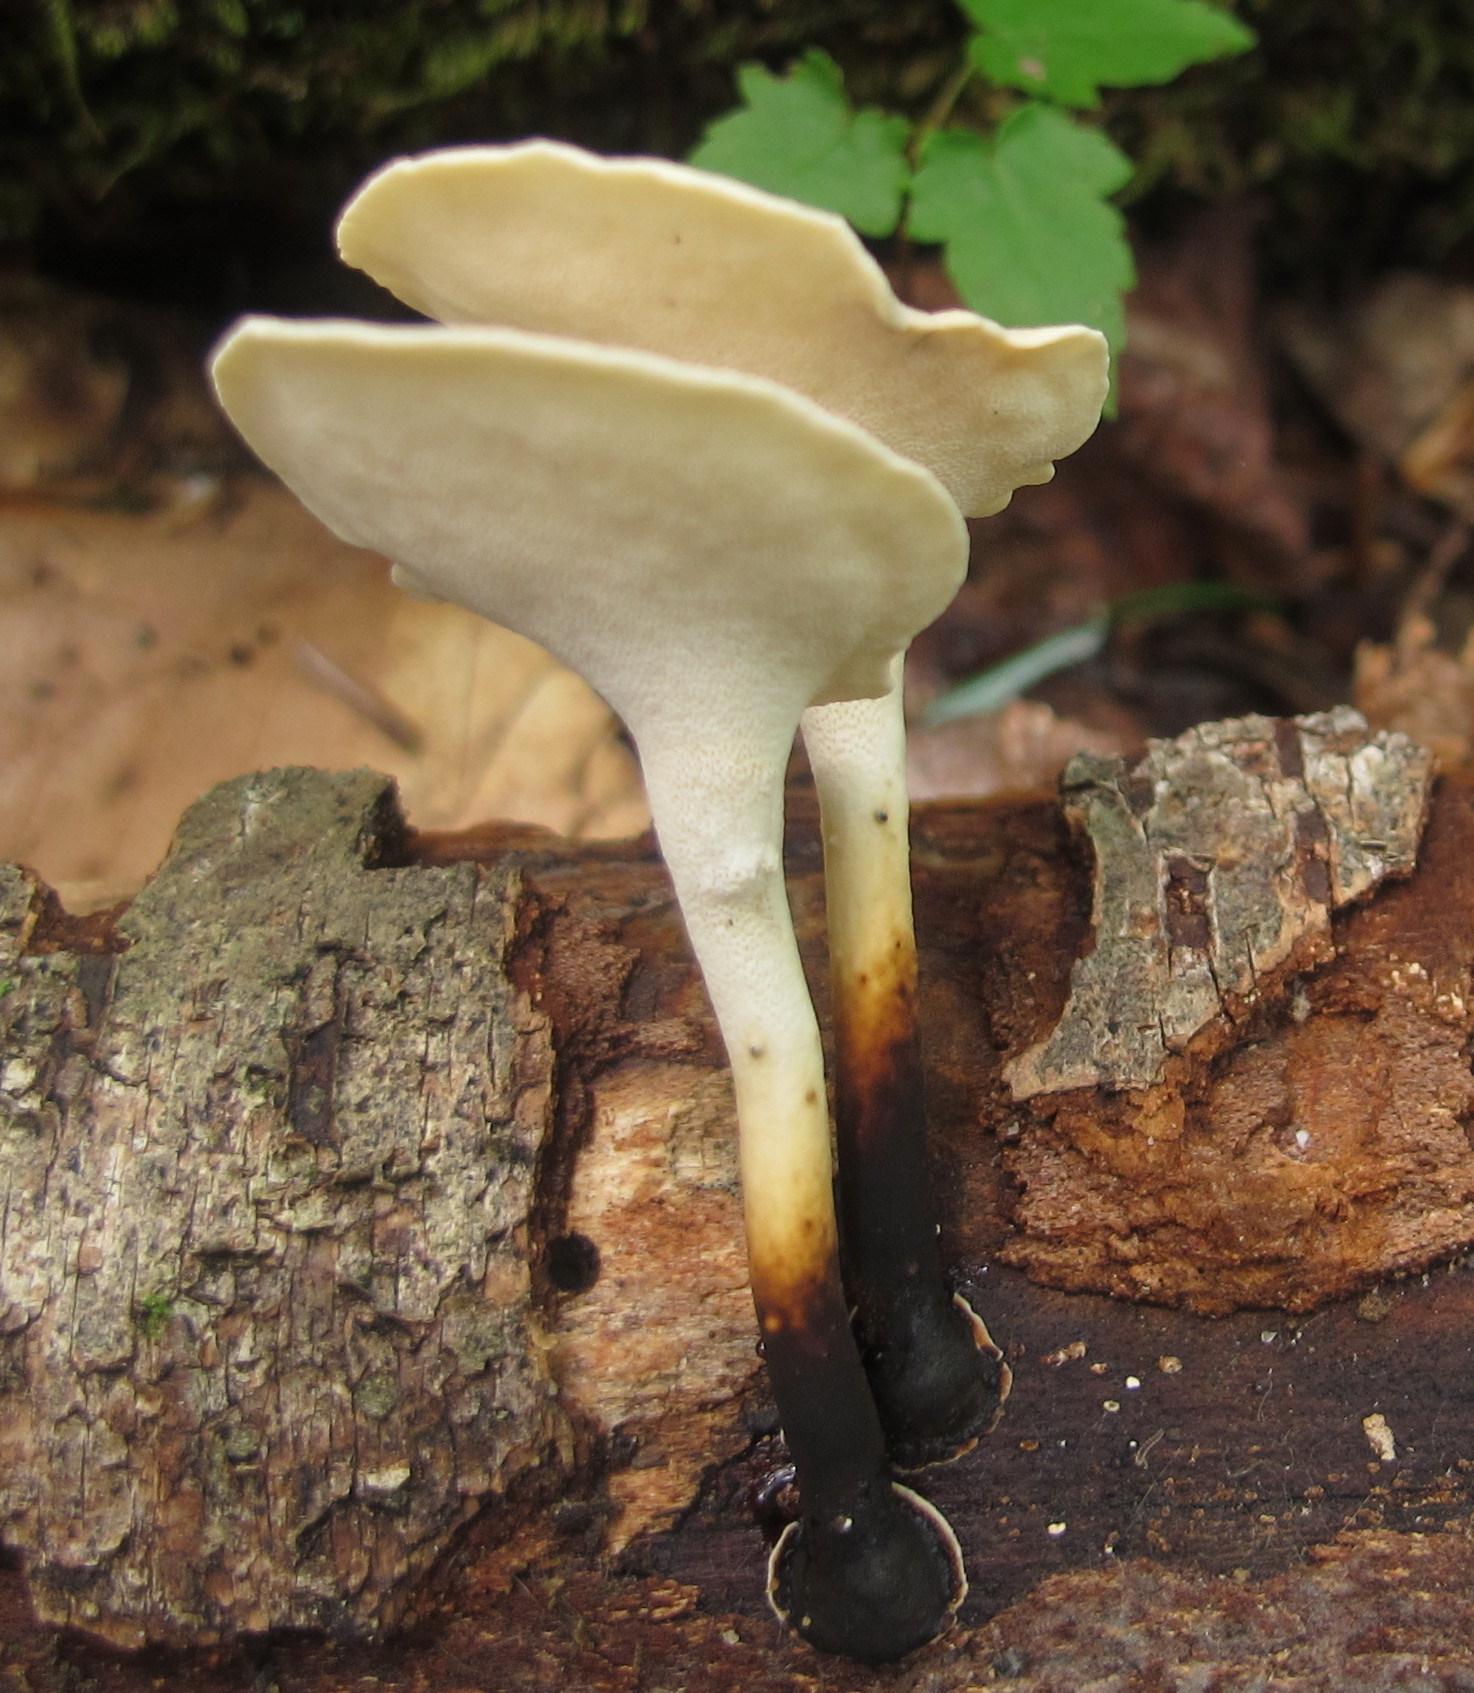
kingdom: Fungi
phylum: Basidiomycota
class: Agaricomycetes
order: Polyporales
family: Polyporaceae
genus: Cerioporus
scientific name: Cerioporus leptocephalus
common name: Blackfoot polypore
